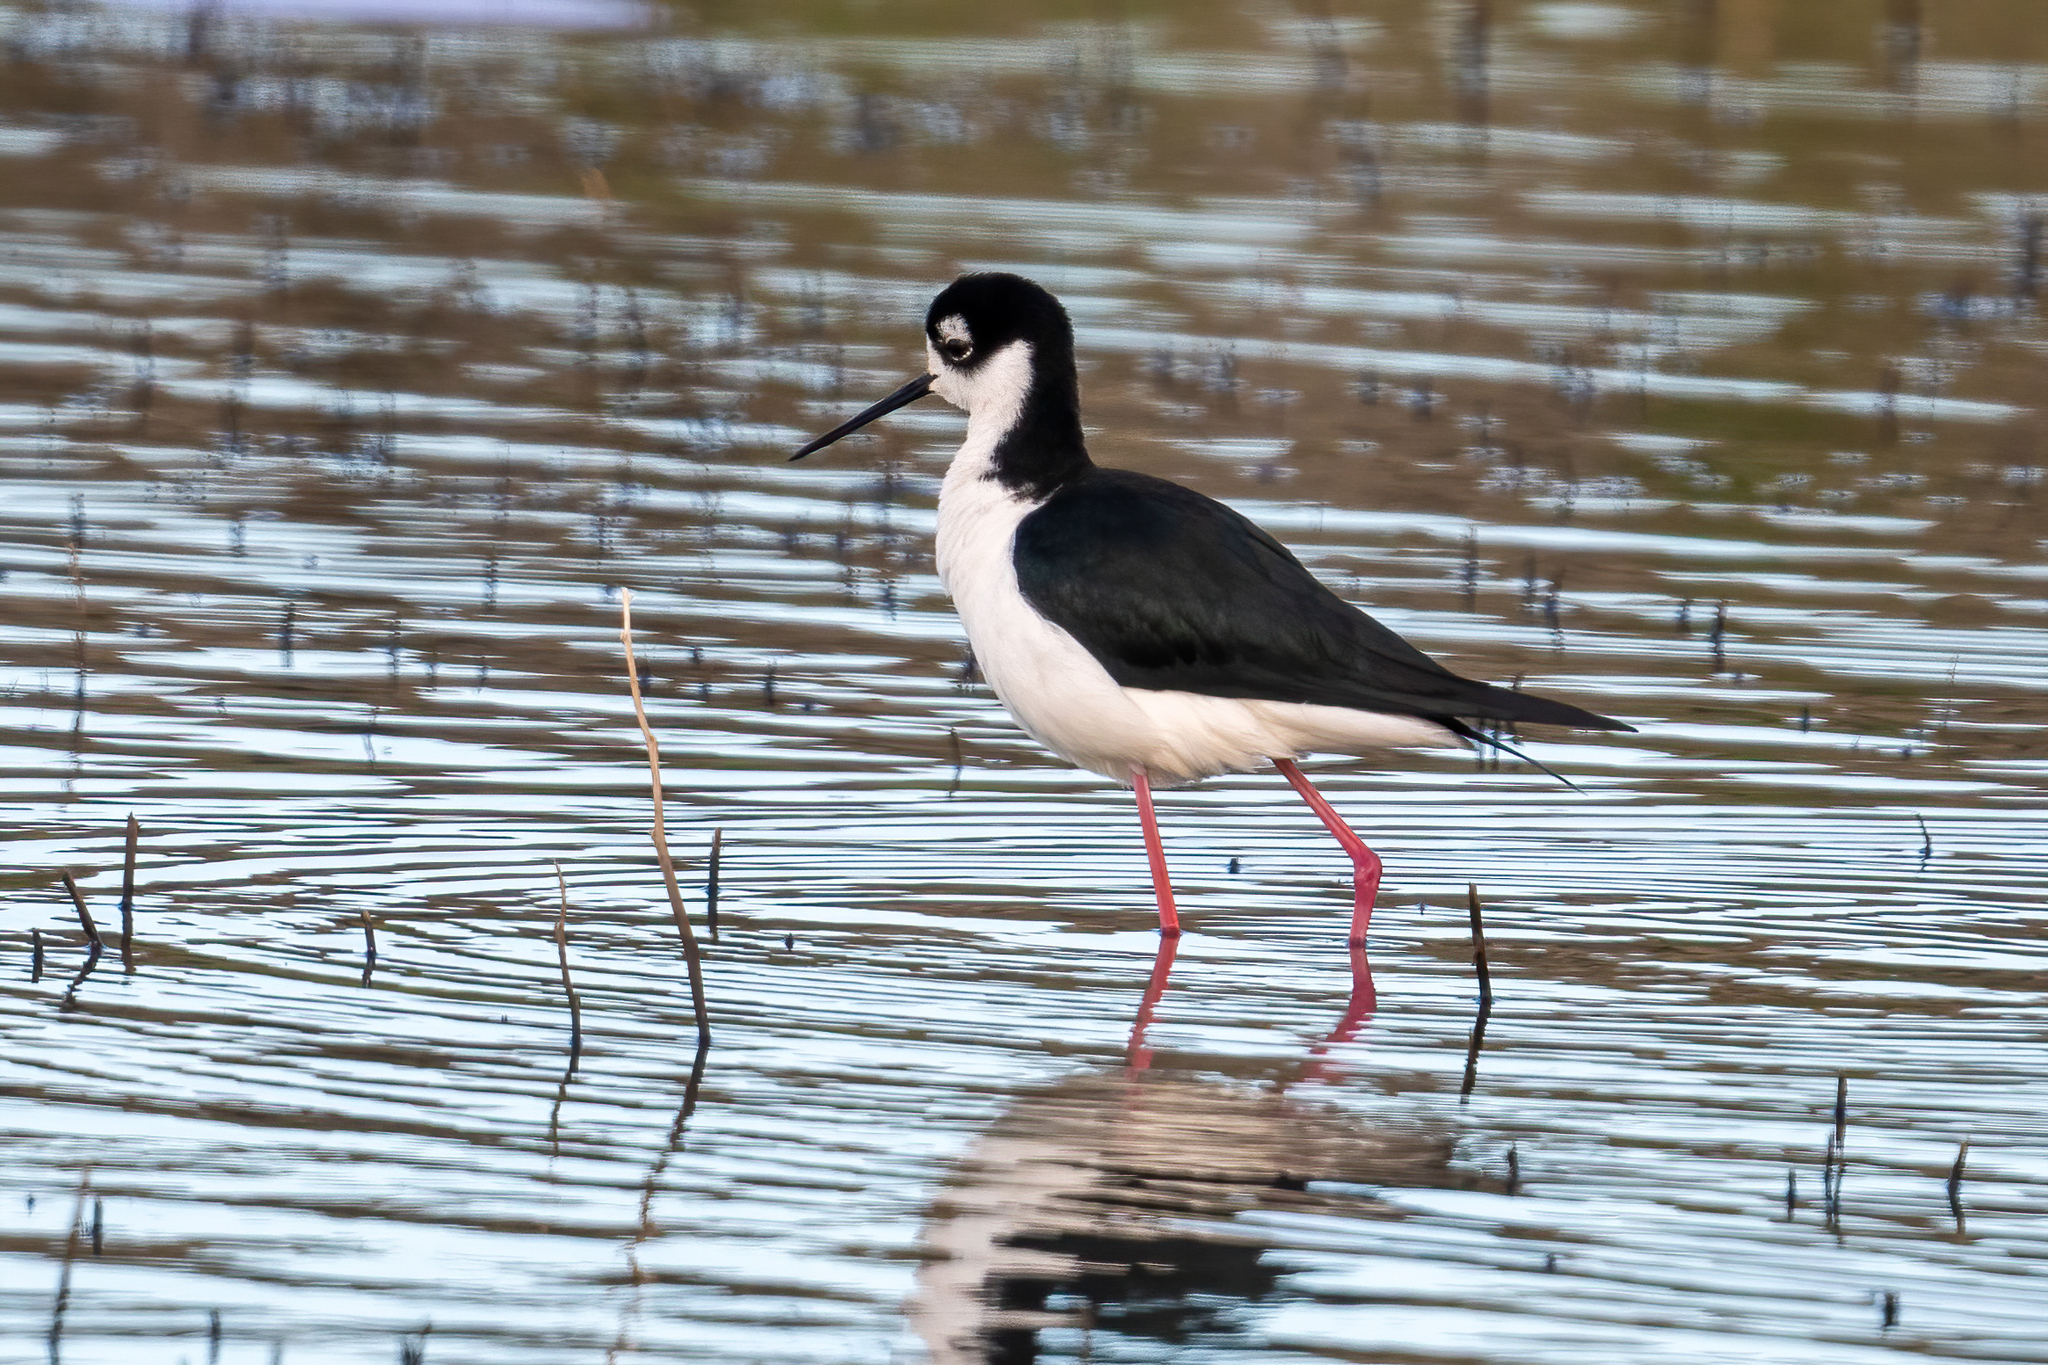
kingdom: Animalia
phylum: Chordata
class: Aves
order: Charadriiformes
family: Recurvirostridae
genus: Himantopus
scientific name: Himantopus mexicanus
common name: Black-necked stilt
